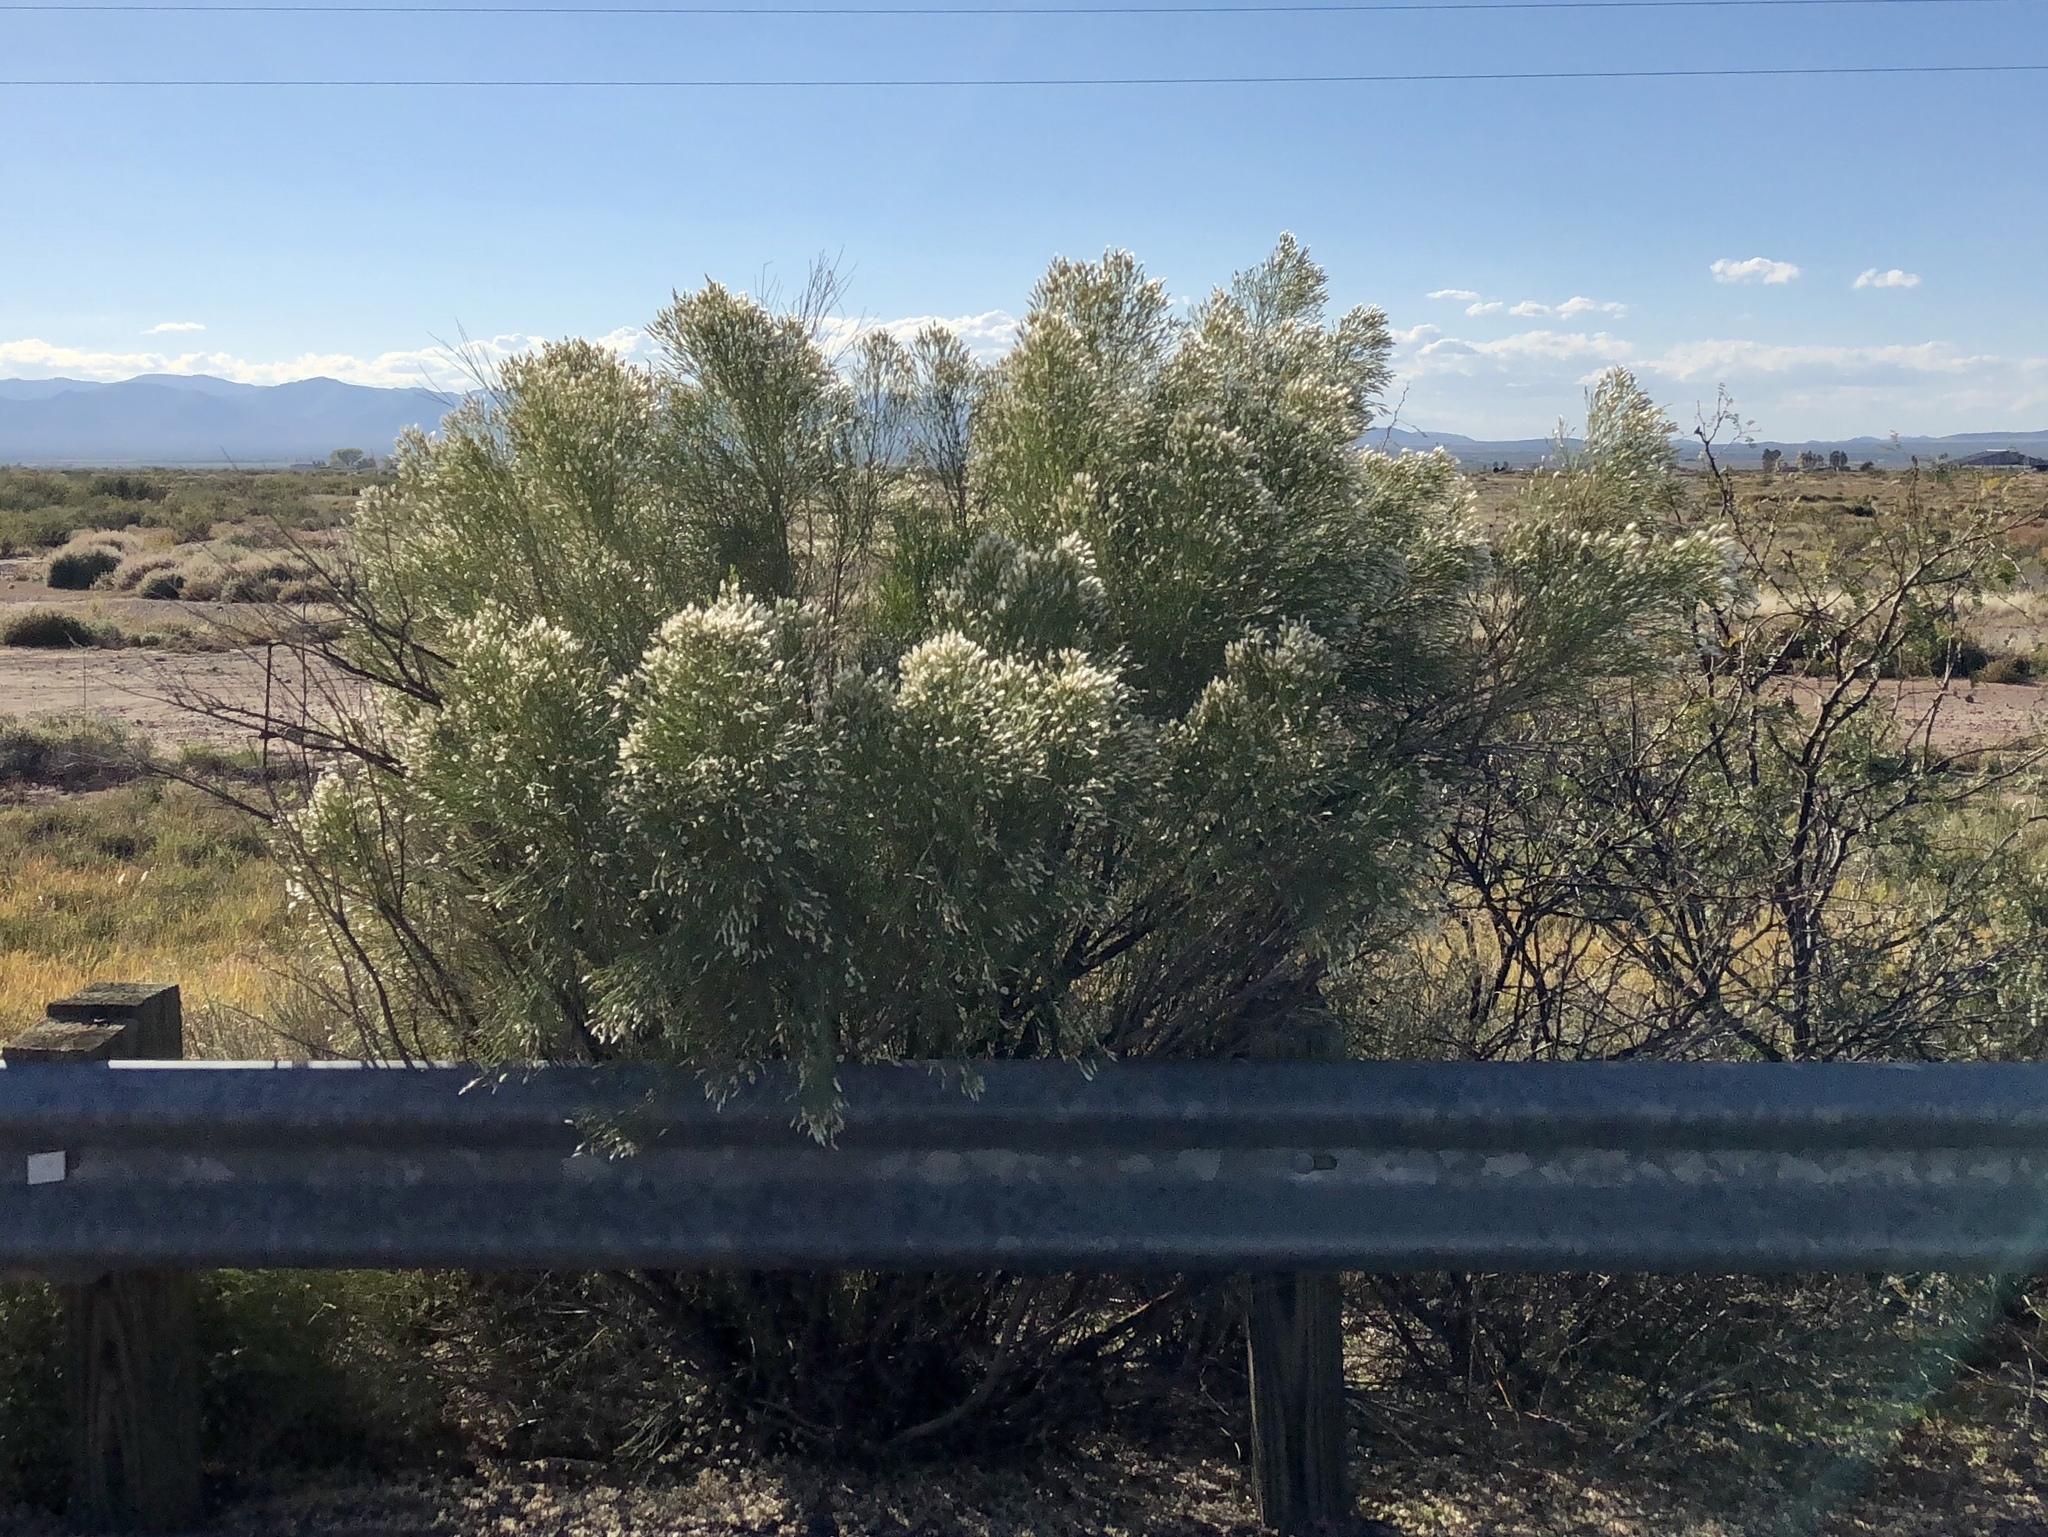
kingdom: Plantae
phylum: Tracheophyta
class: Magnoliopsida
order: Asterales
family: Asteraceae
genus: Baccharis
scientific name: Baccharis sarothroides
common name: Desert-broom
